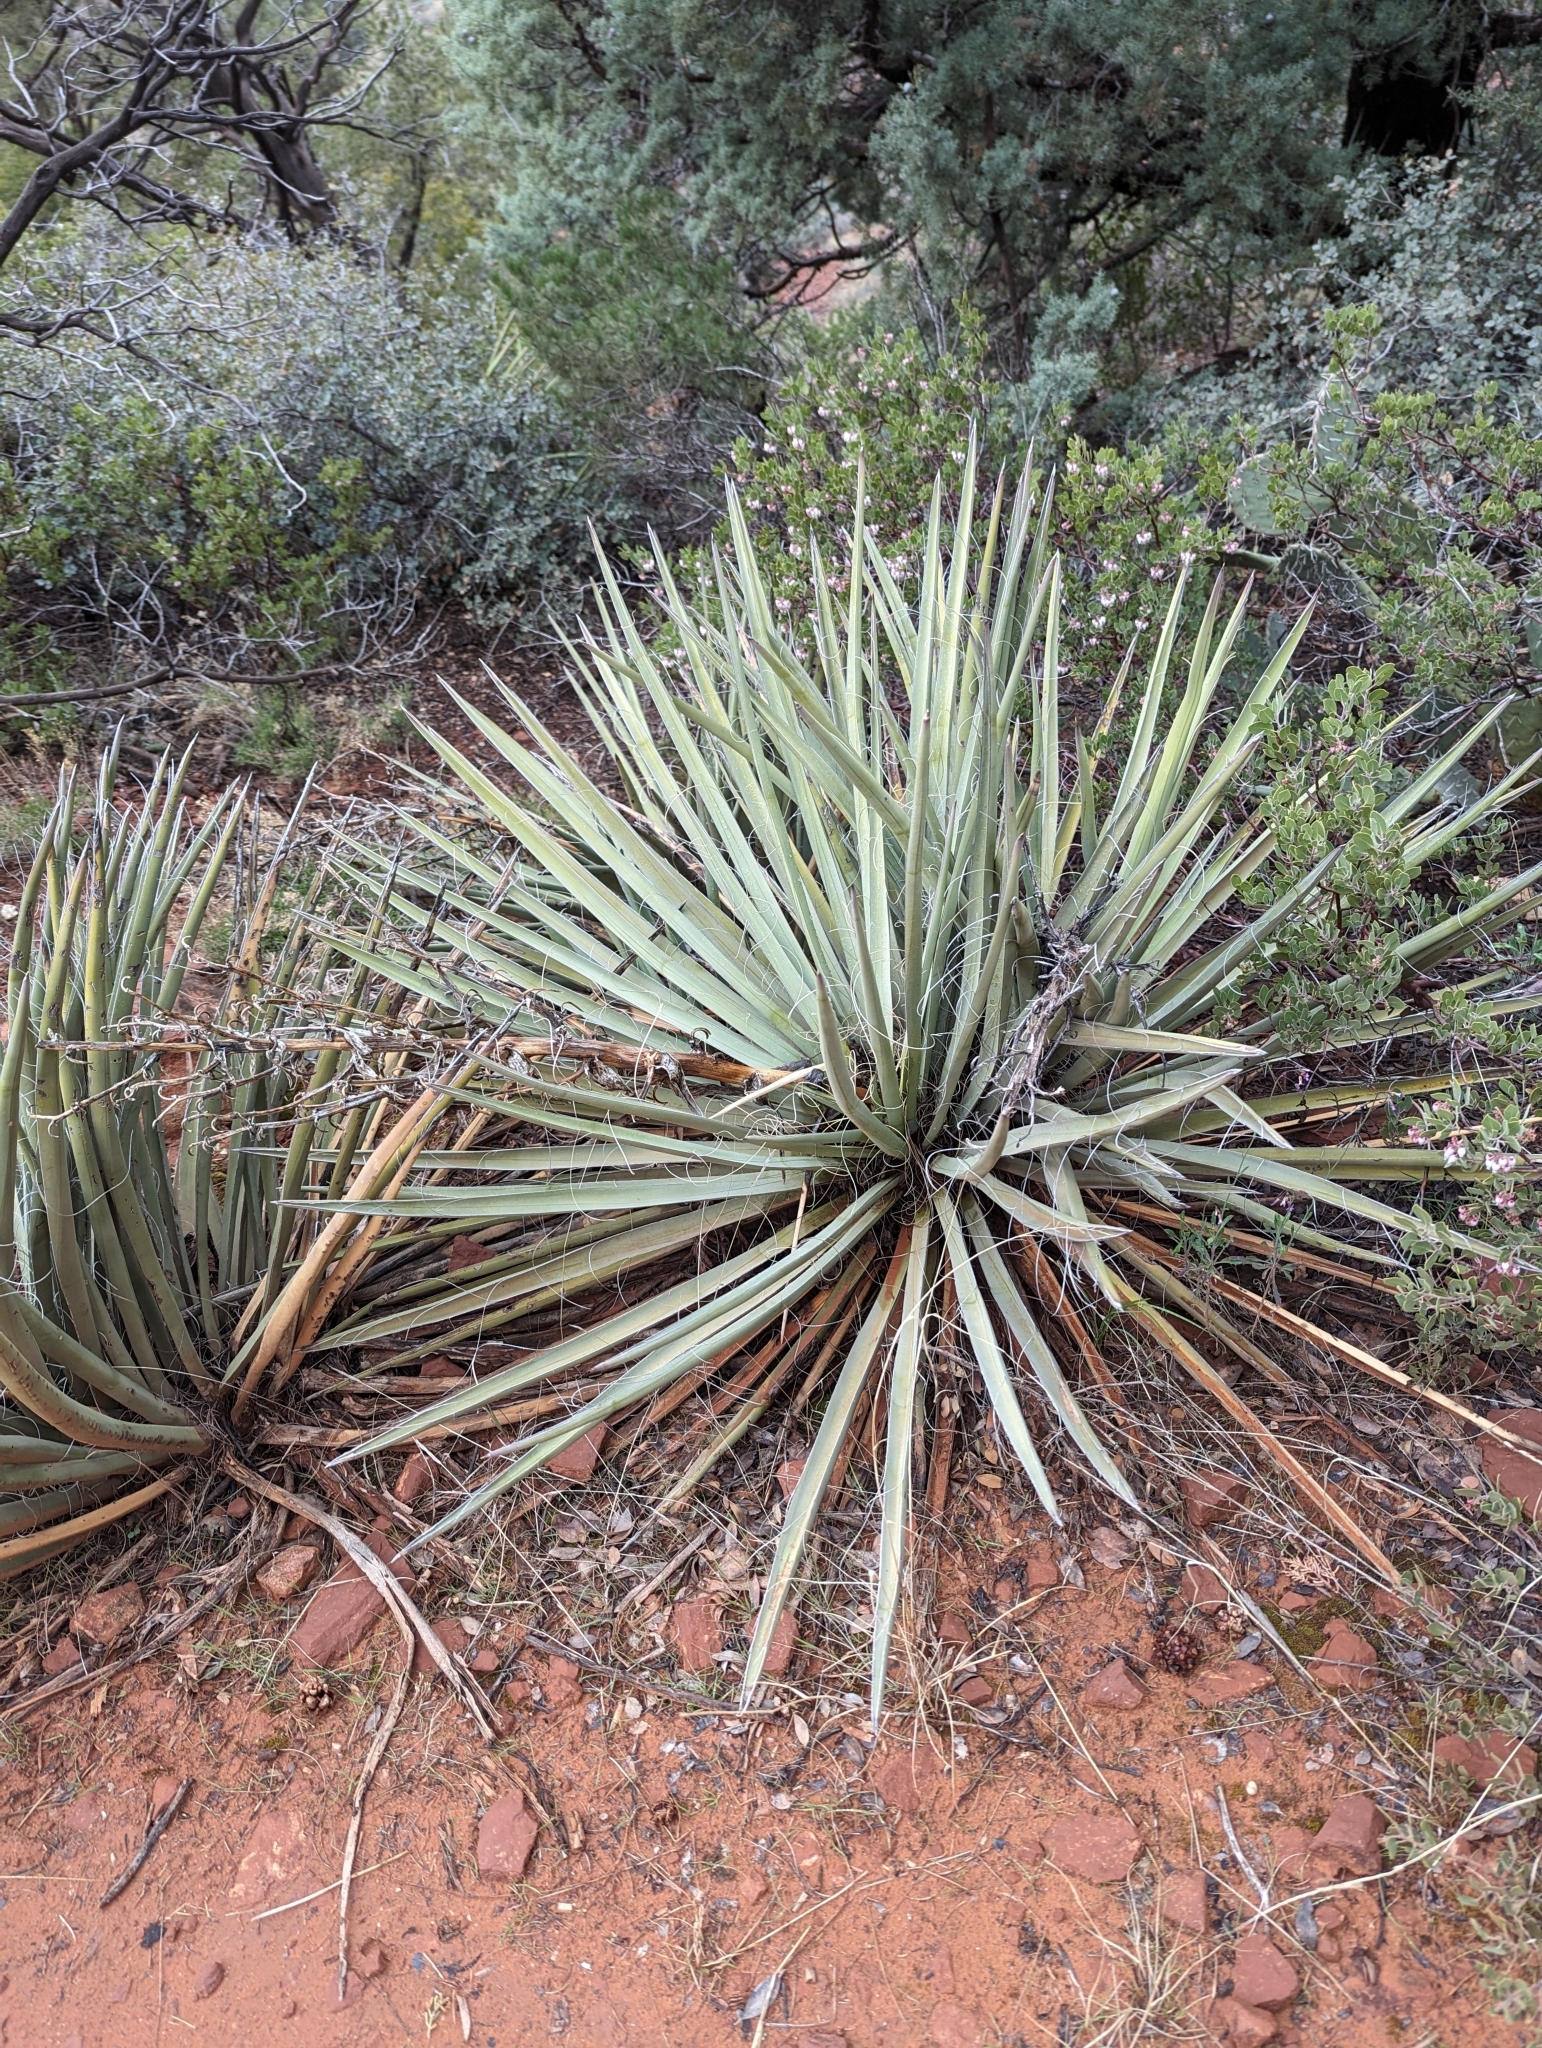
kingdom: Plantae
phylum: Tracheophyta
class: Liliopsida
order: Asparagales
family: Asparagaceae
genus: Yucca
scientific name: Yucca baccata
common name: Banana yucca
